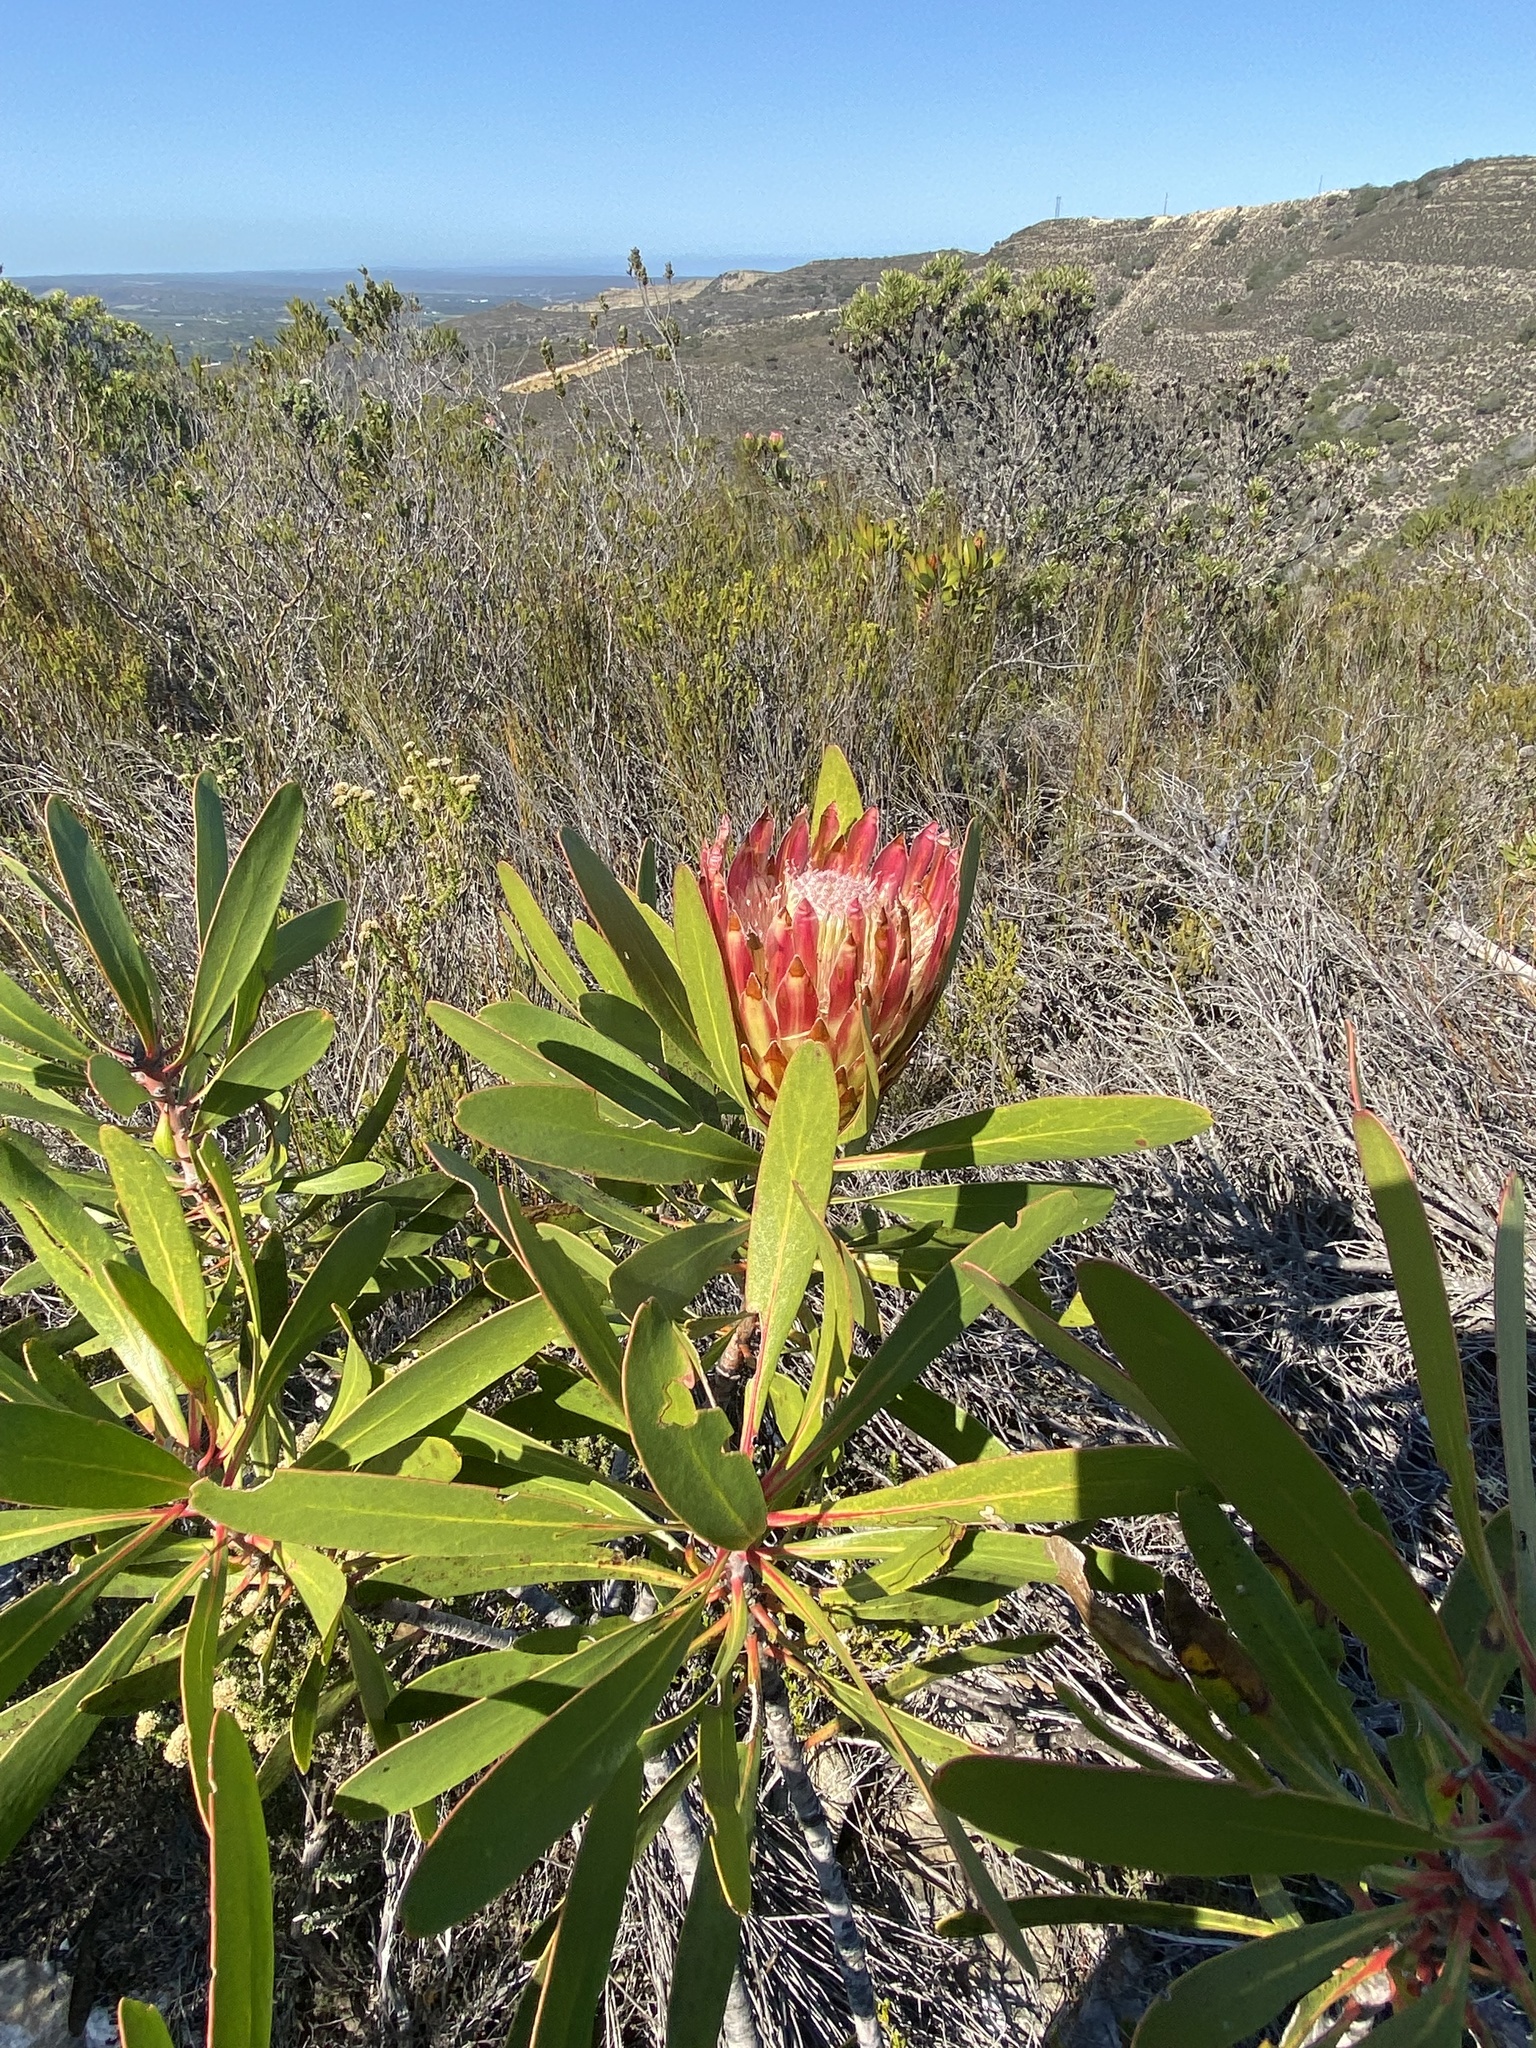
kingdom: Plantae
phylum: Tracheophyta
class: Magnoliopsida
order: Proteales
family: Proteaceae
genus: Protea
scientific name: Protea obtusifolia
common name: Bredasdorp sugarbush
